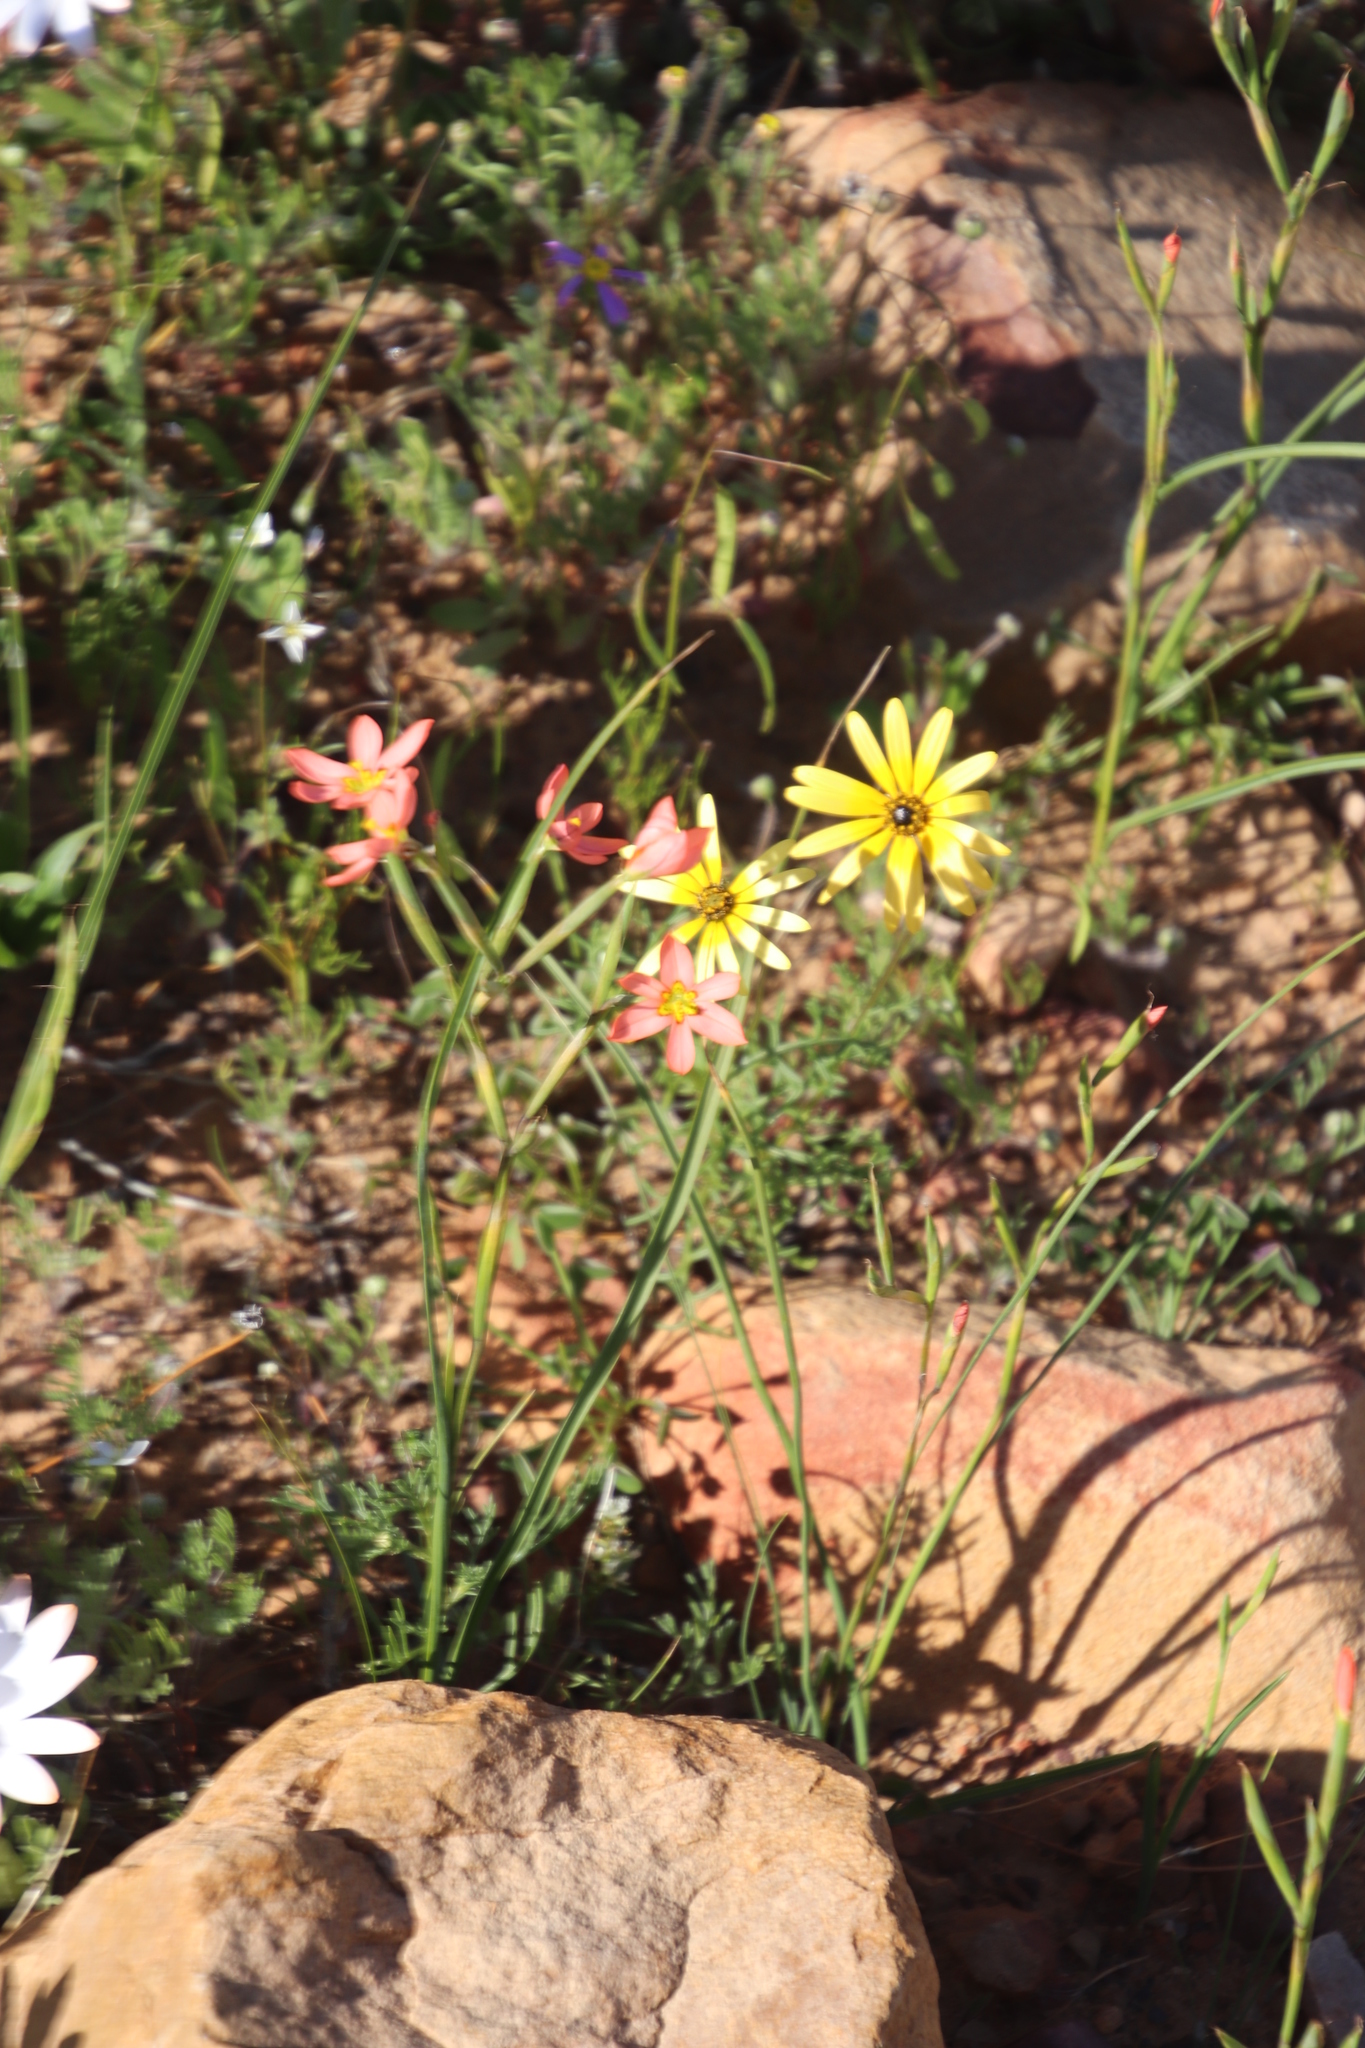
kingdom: Plantae
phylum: Tracheophyta
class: Liliopsida
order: Asparagales
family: Iridaceae
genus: Moraea
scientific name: Moraea miniata
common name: Two-leaf cape-tulip
